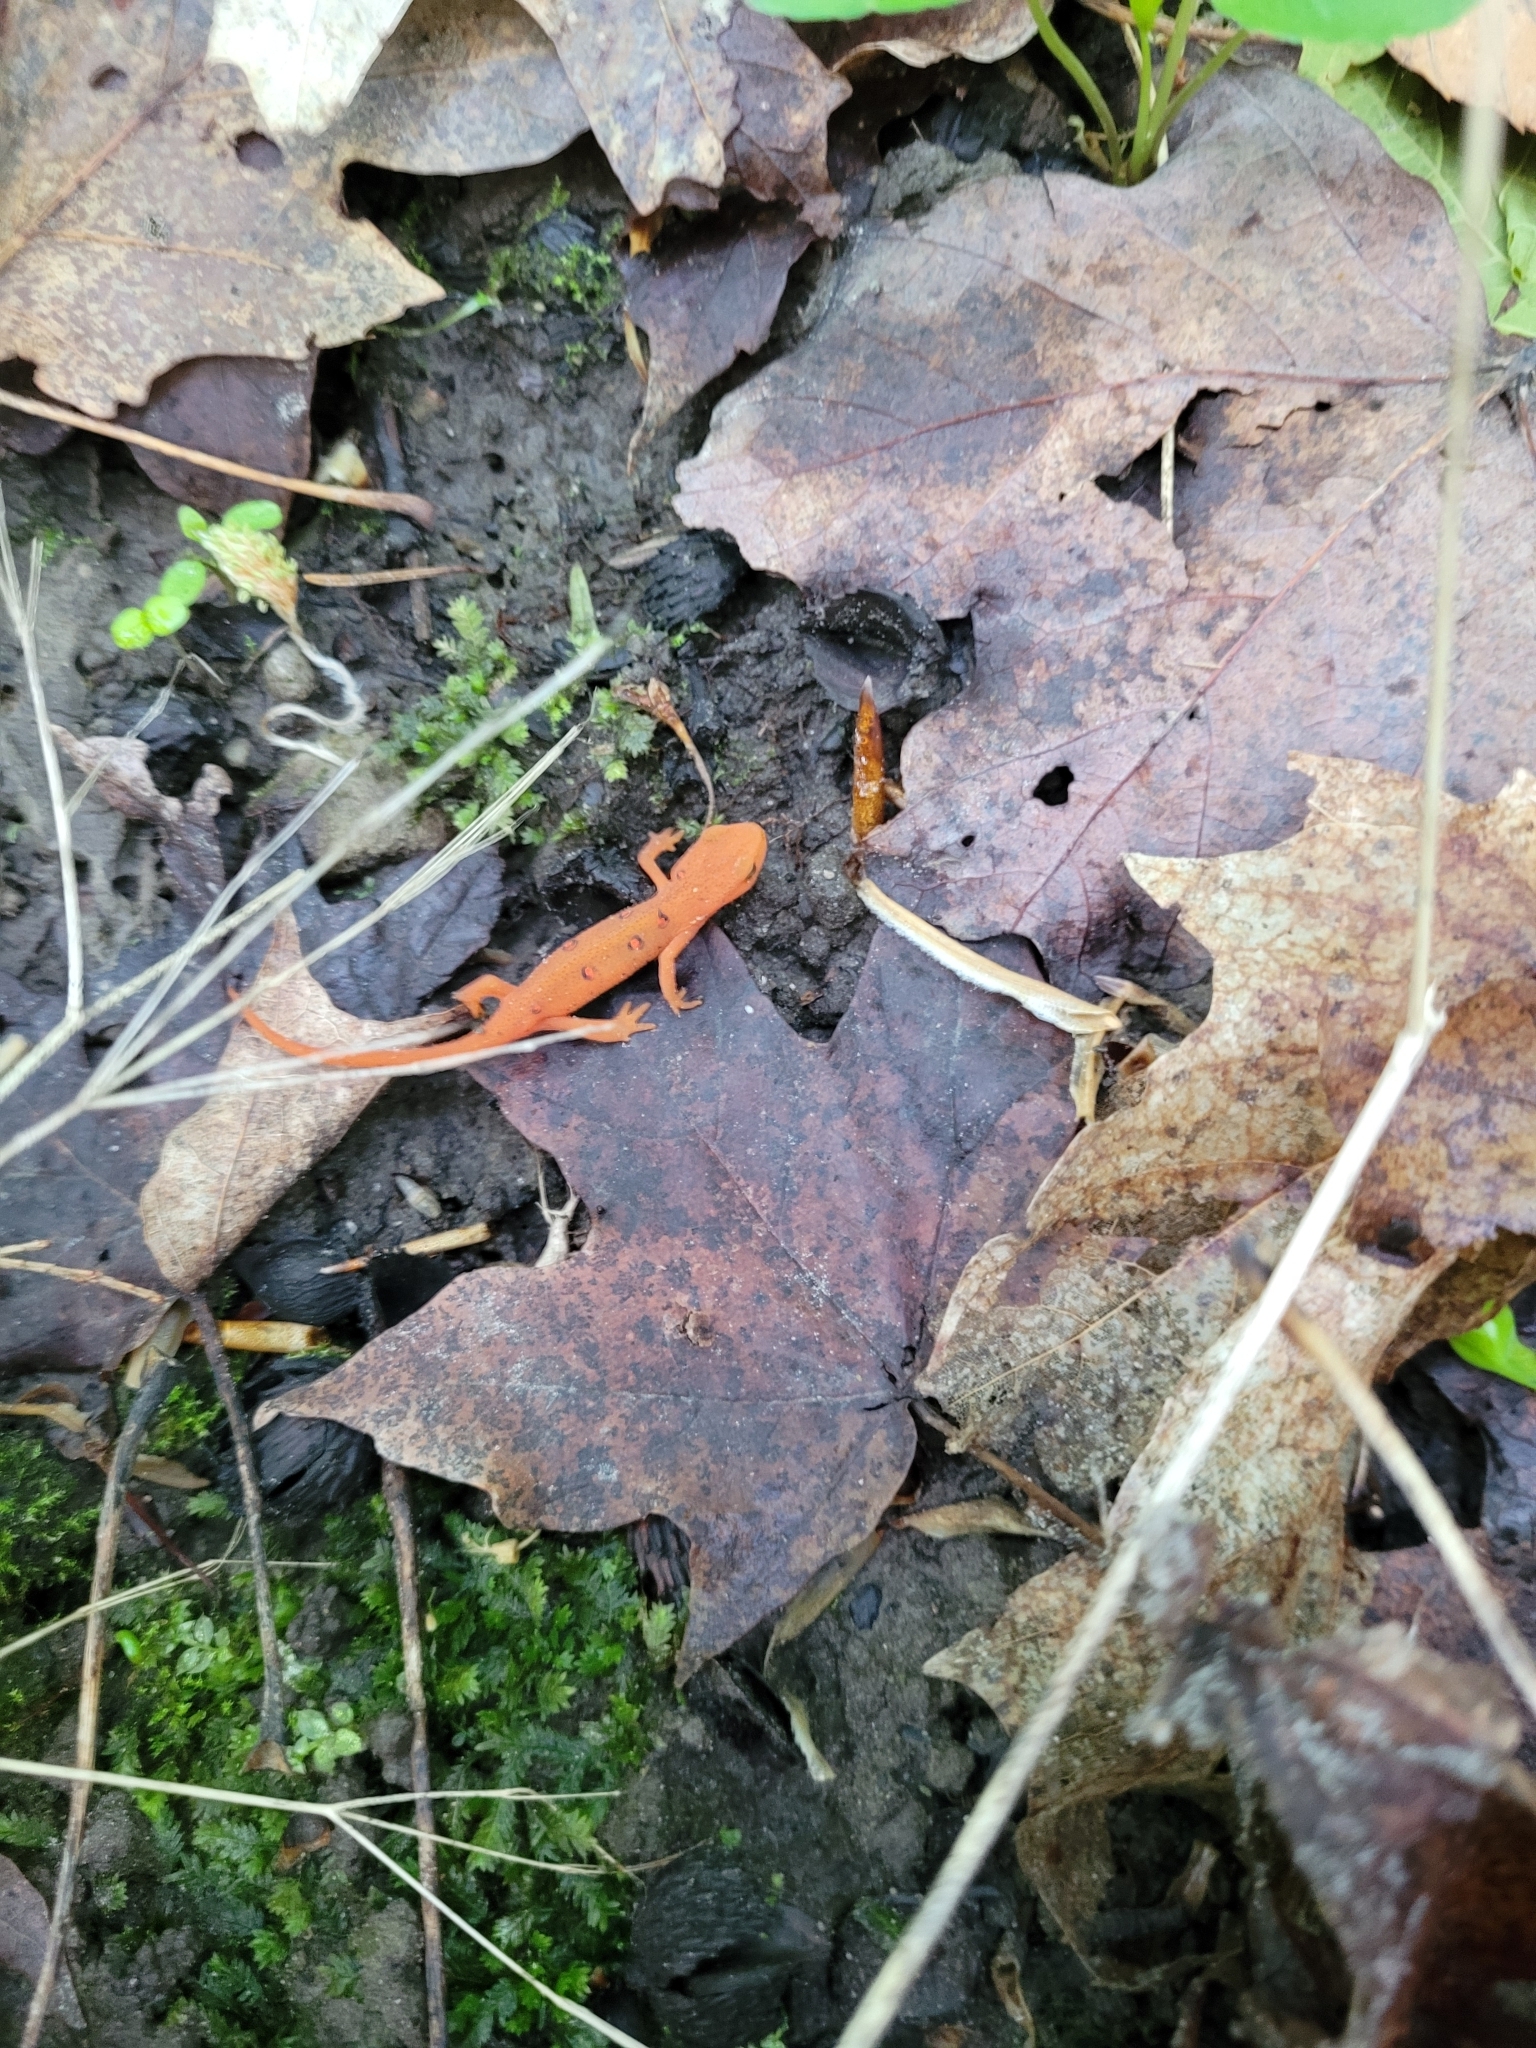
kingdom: Animalia
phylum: Chordata
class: Amphibia
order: Caudata
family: Salamandridae
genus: Notophthalmus
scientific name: Notophthalmus viridescens
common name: Eastern newt
